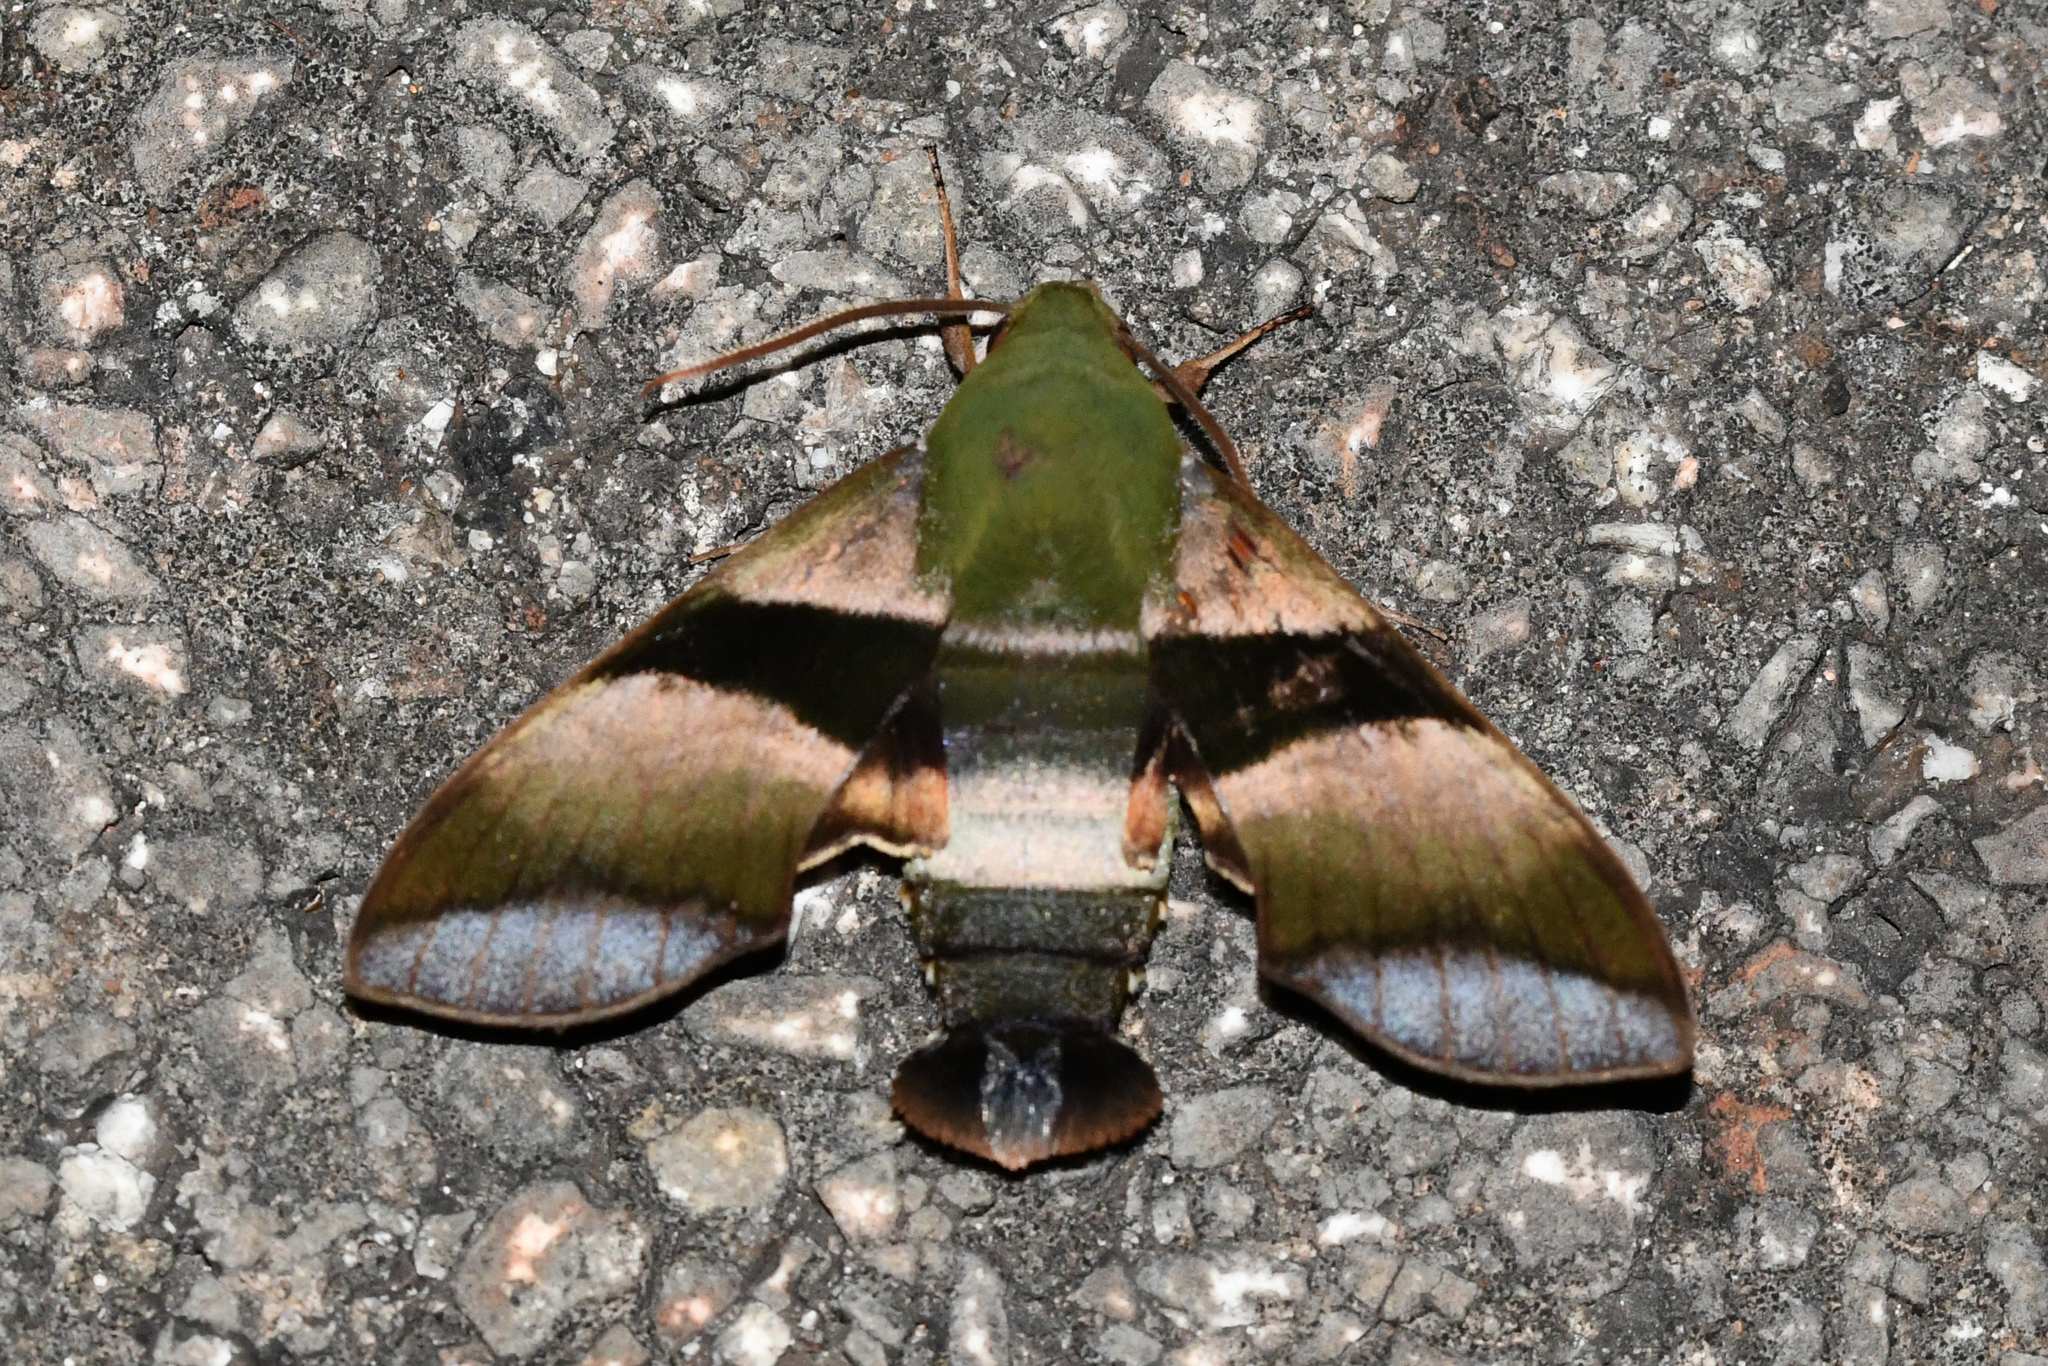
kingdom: Animalia
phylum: Arthropoda
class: Insecta
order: Lepidoptera
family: Sphingidae
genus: Perigonia
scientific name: Perigonia glaucescens
